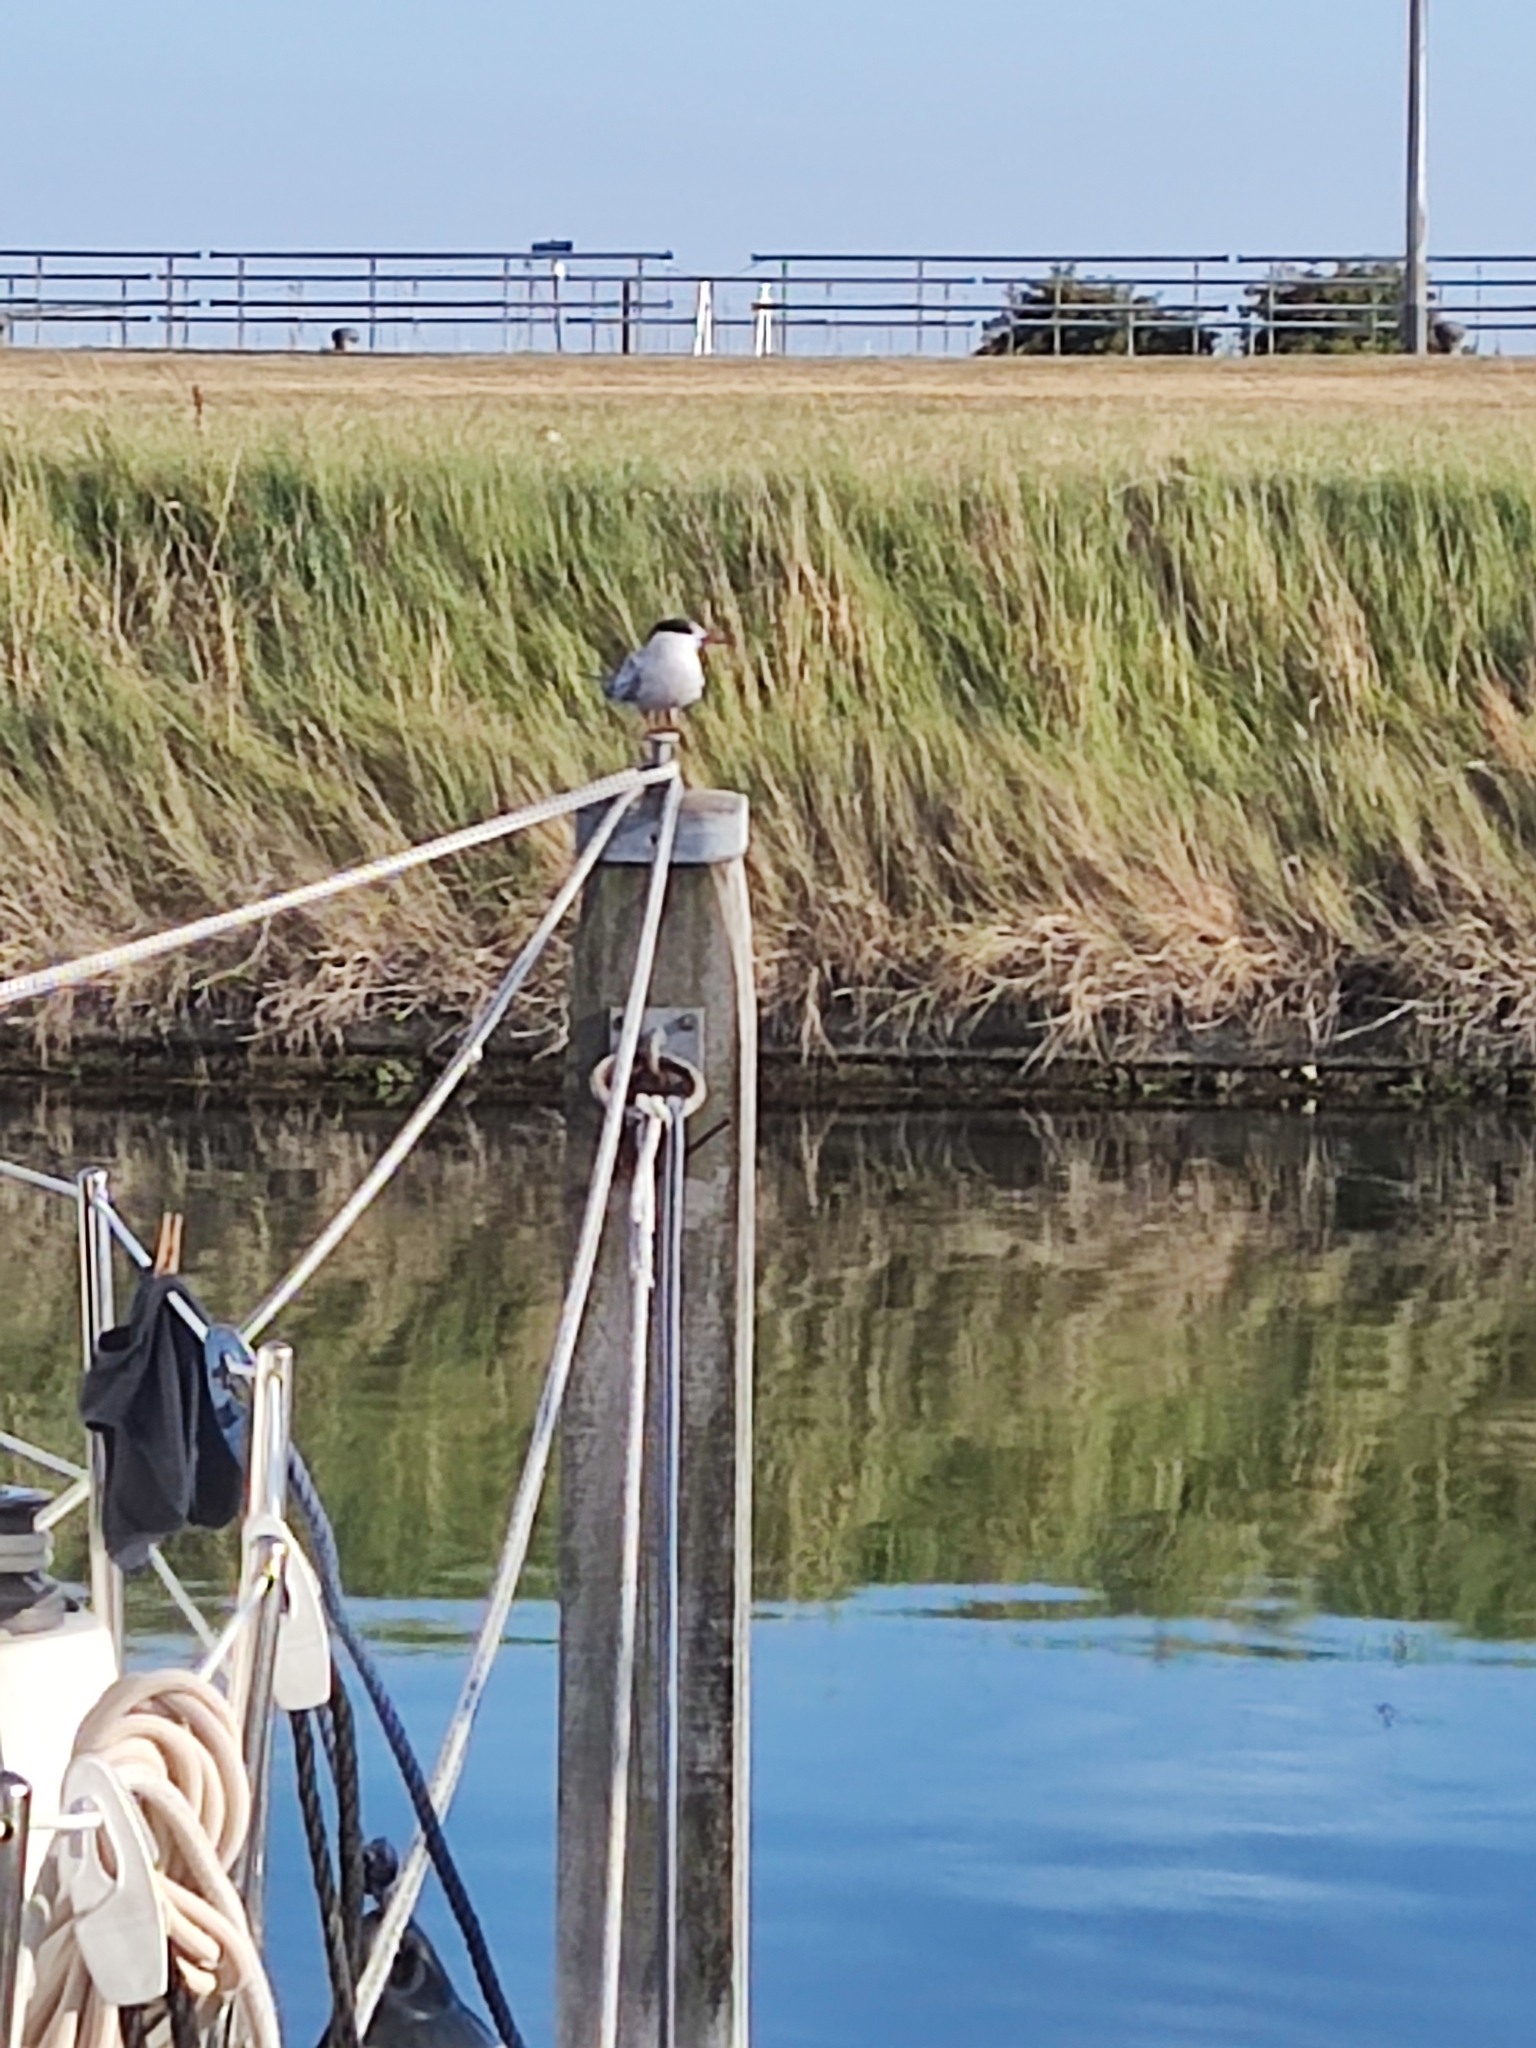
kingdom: Animalia
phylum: Chordata
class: Aves
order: Charadriiformes
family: Laridae
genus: Sterna
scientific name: Sterna hirundo
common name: Common tern
